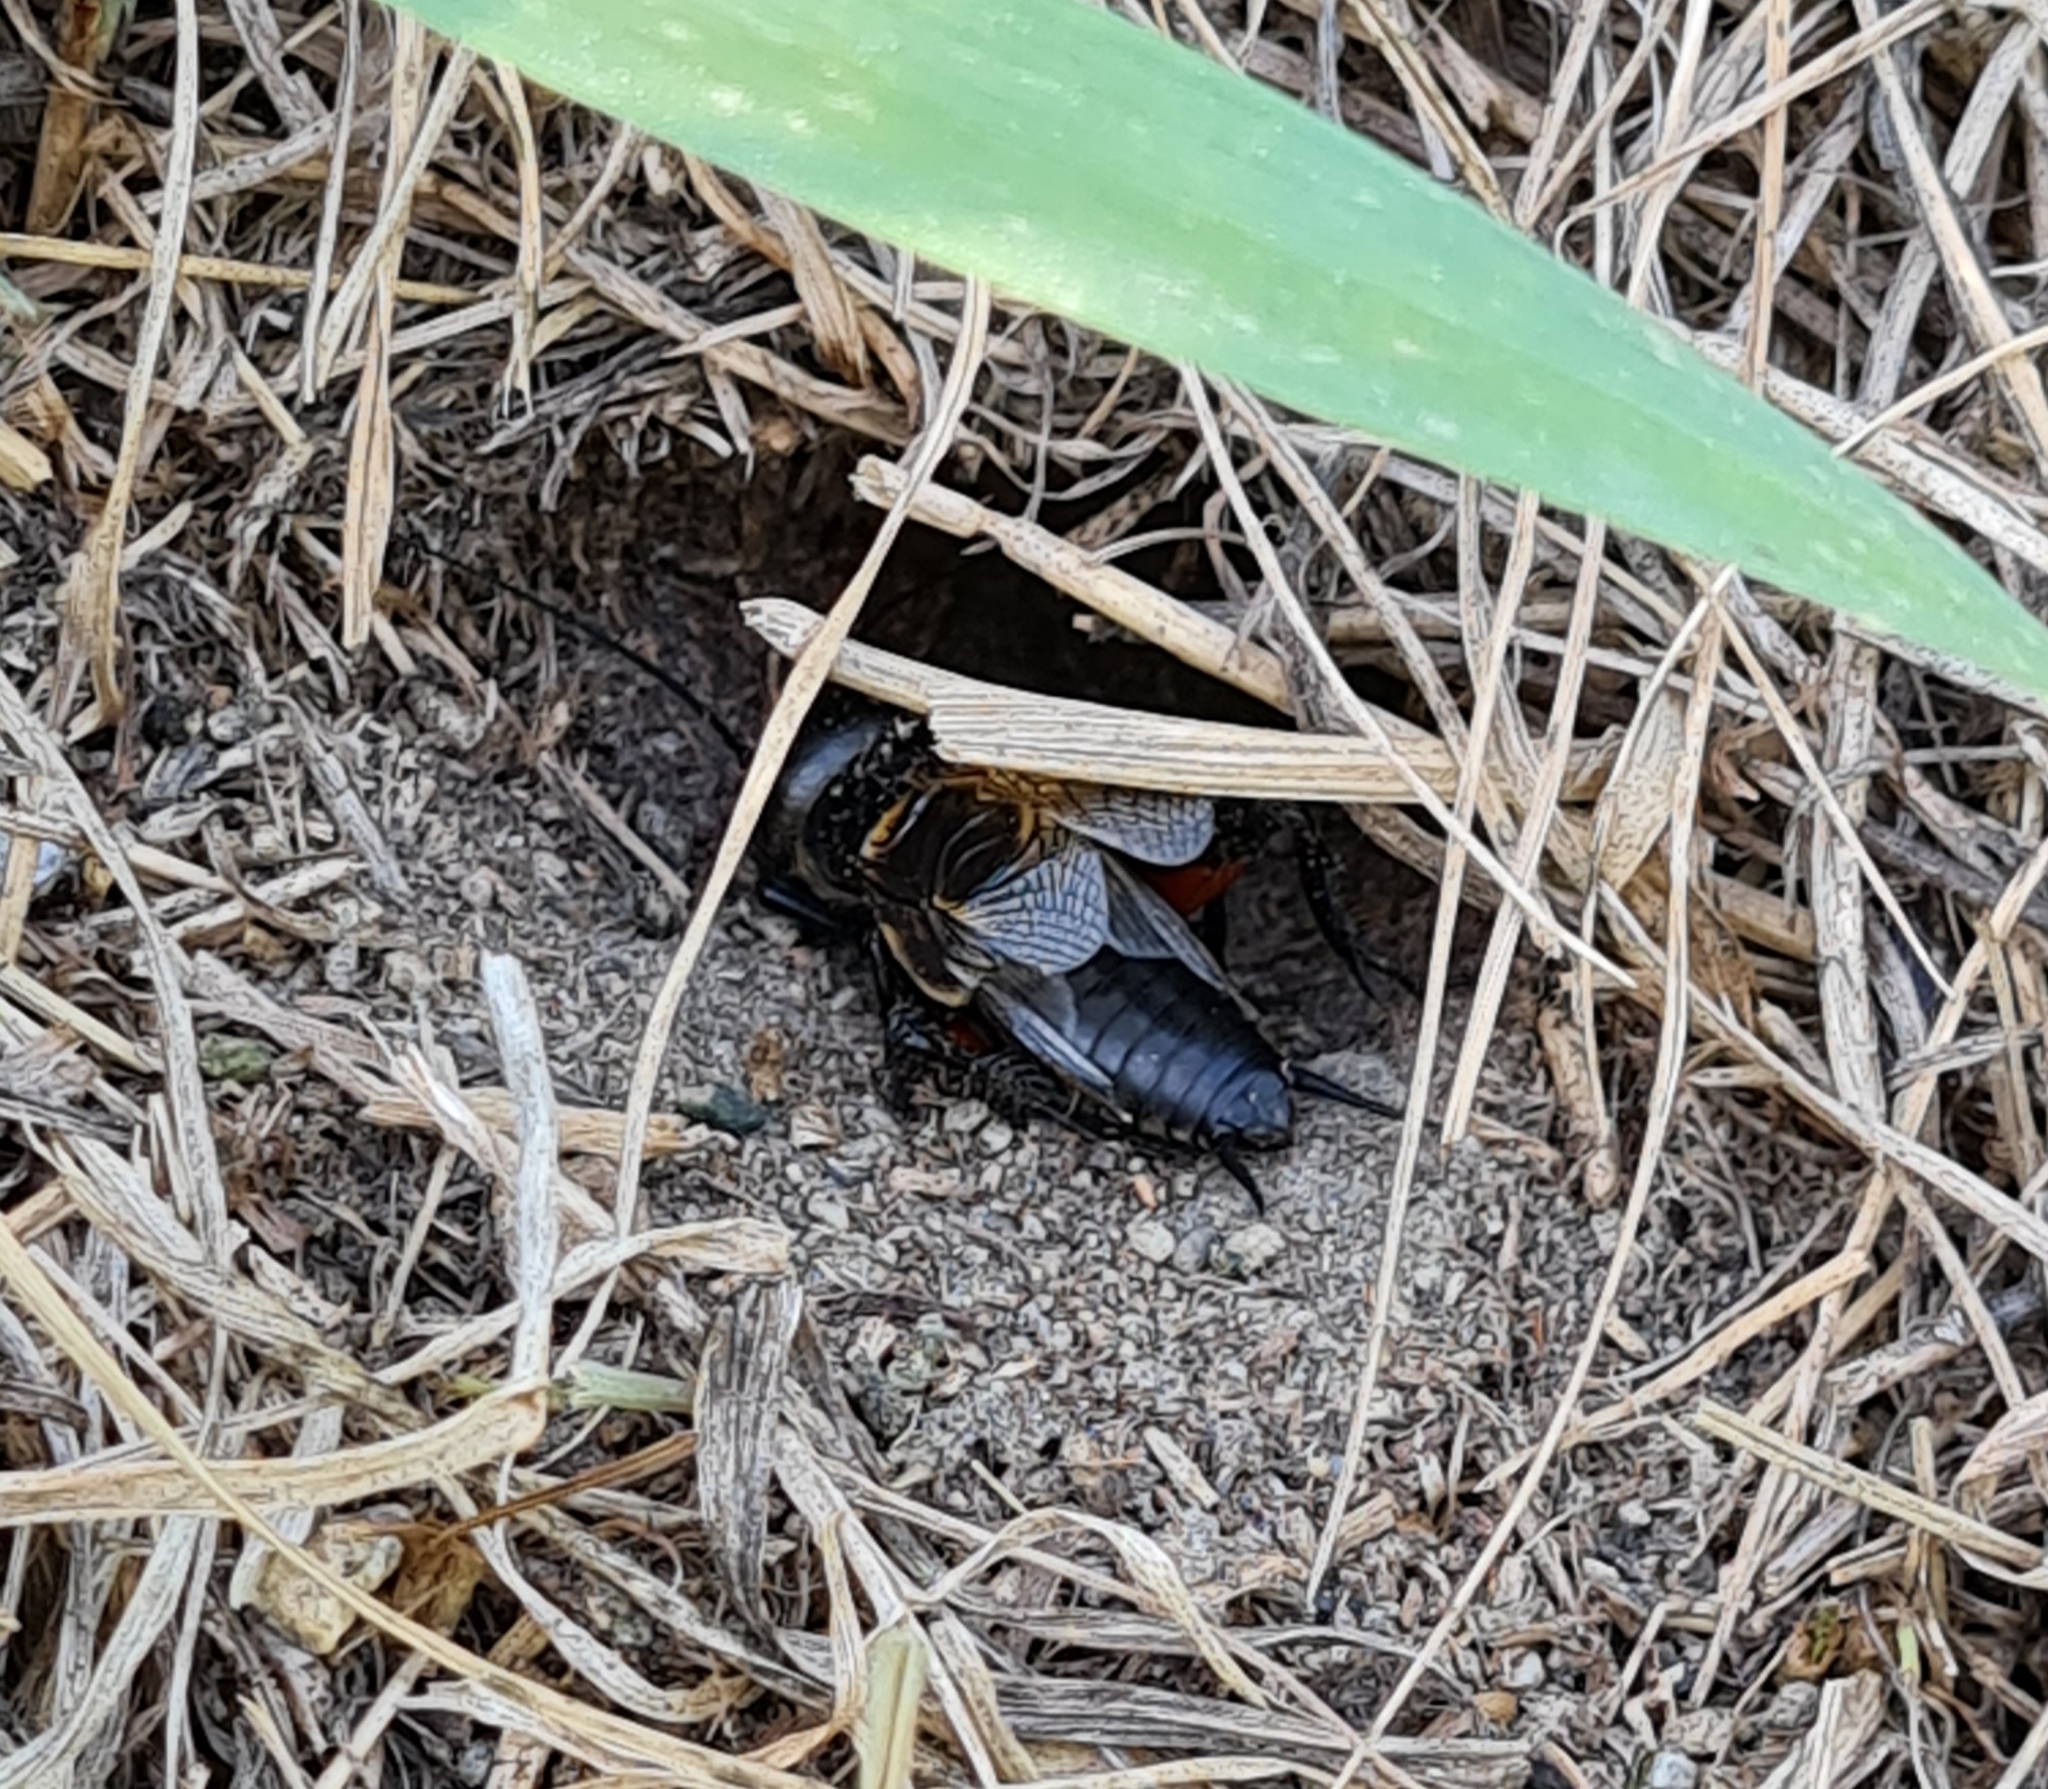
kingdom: Animalia
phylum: Arthropoda
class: Insecta
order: Orthoptera
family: Gryllidae
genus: Gryllus
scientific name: Gryllus campestris
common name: Field cricket
